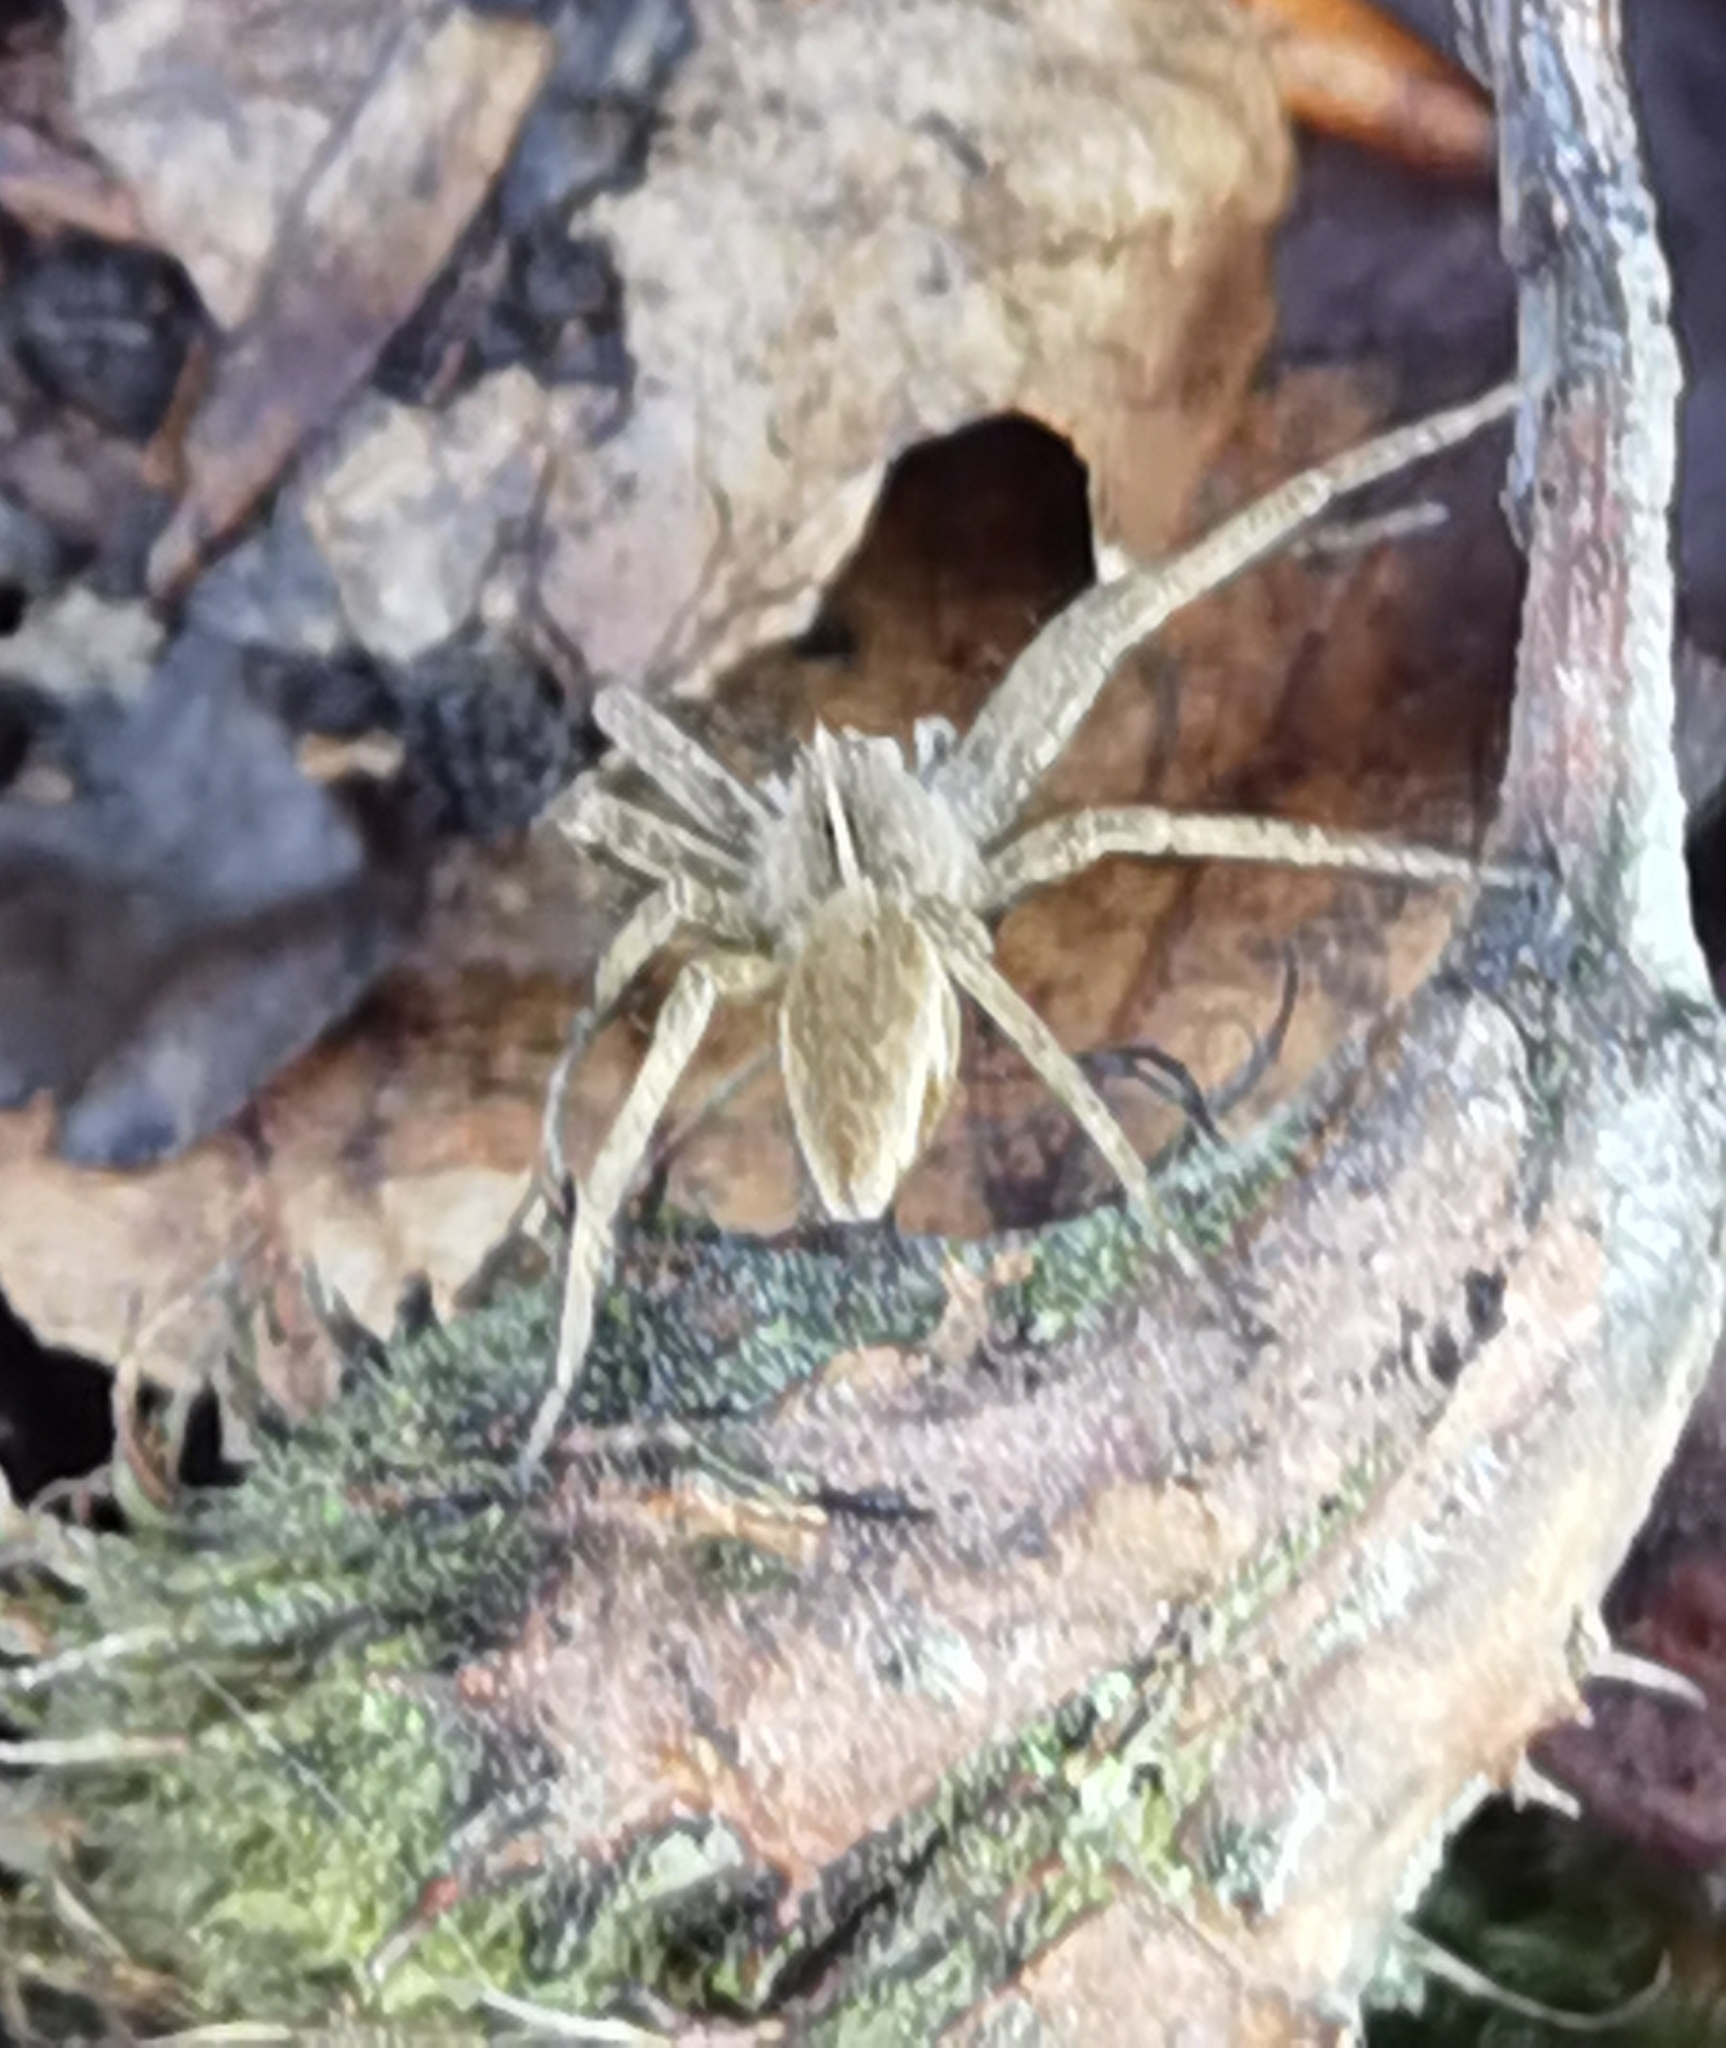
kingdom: Animalia
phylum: Arthropoda
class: Arachnida
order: Araneae
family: Pisauridae
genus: Pisaura
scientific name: Pisaura mirabilis
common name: Tent spider
